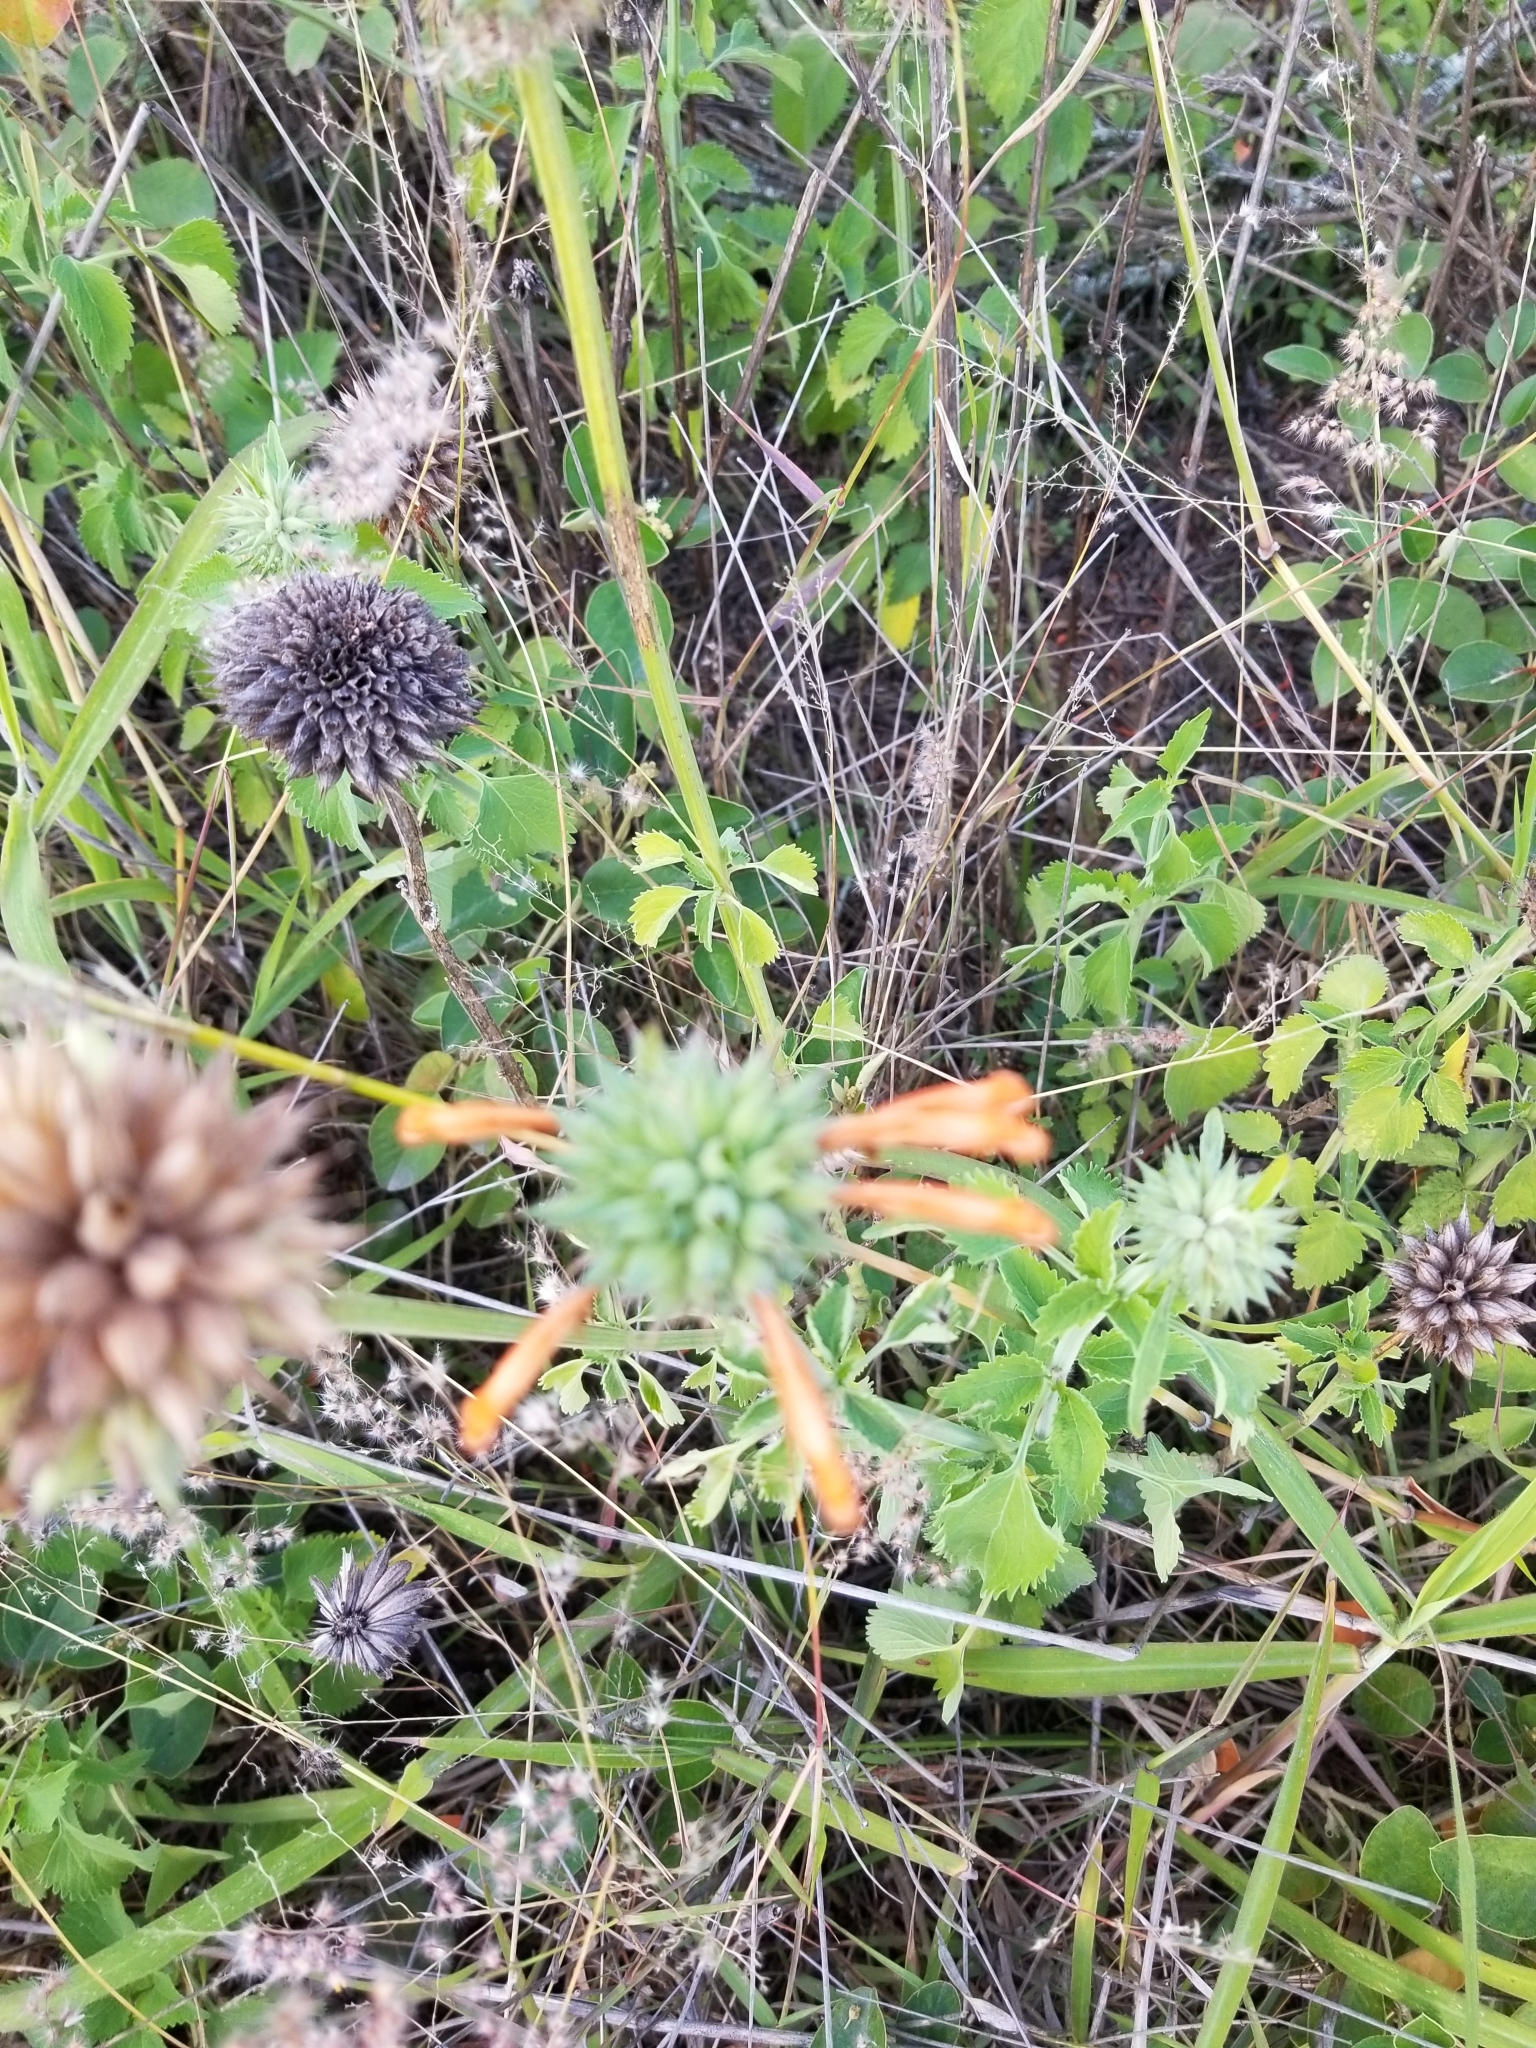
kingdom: Plantae
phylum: Tracheophyta
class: Magnoliopsida
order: Lamiales
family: Lamiaceae
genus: Leonotis
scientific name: Leonotis nepetifolia
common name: Christmas candlestick
